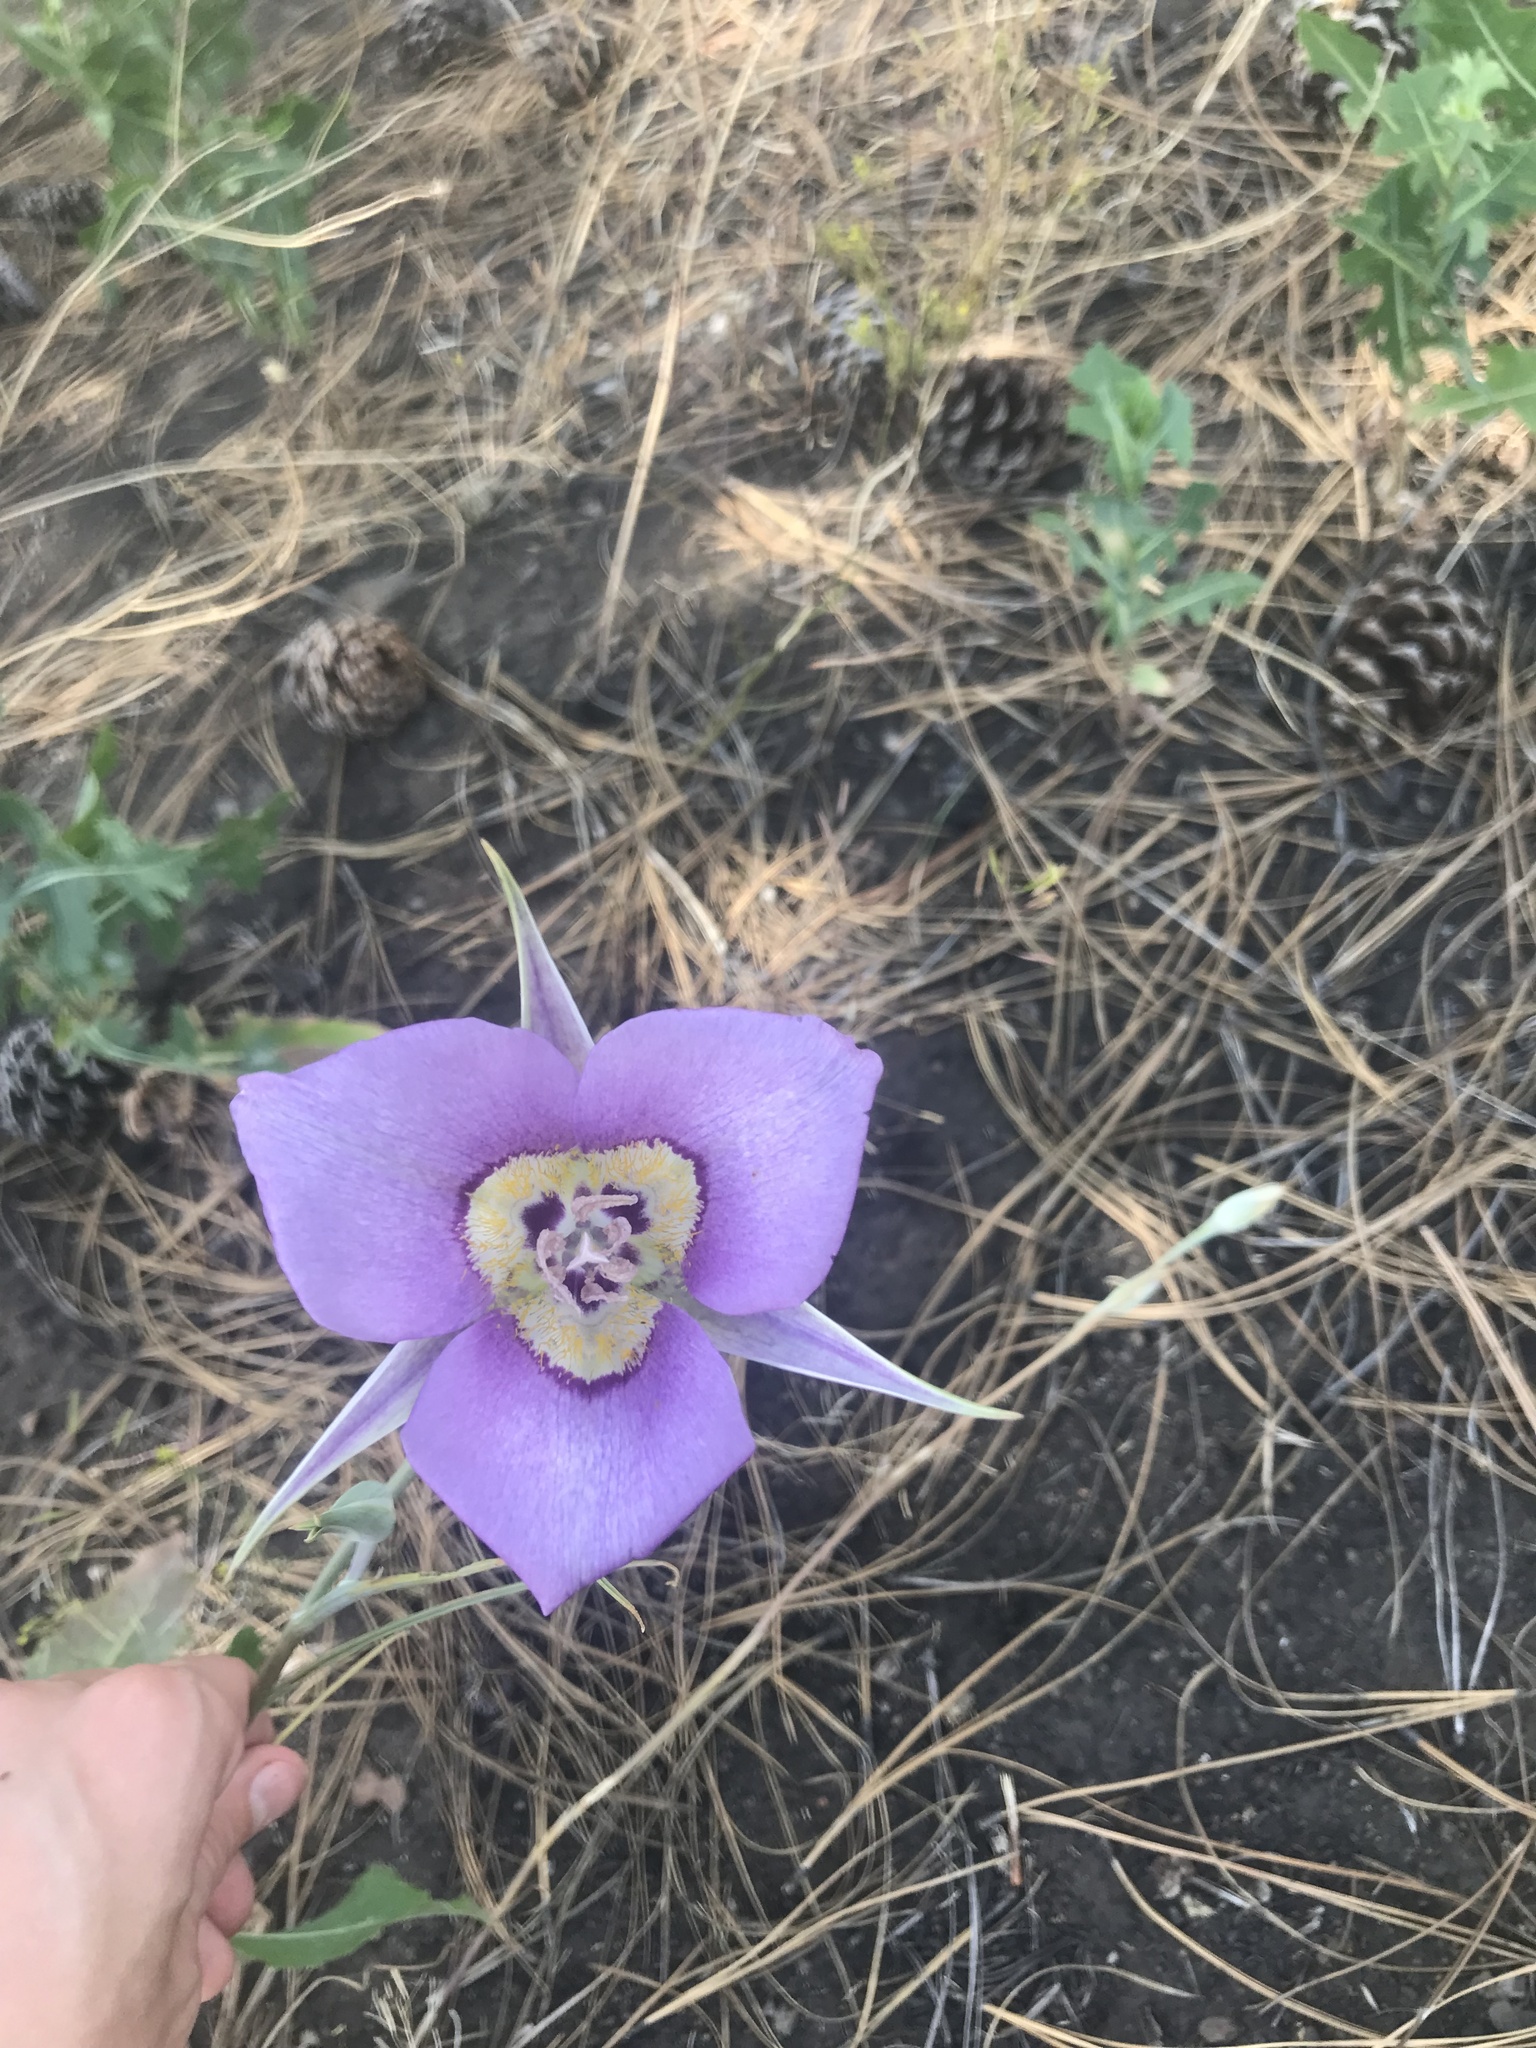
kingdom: Plantae
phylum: Tracheophyta
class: Liliopsida
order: Liliales
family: Liliaceae
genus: Calochortus
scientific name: Calochortus macrocarpus
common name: Green-band mariposa lily
